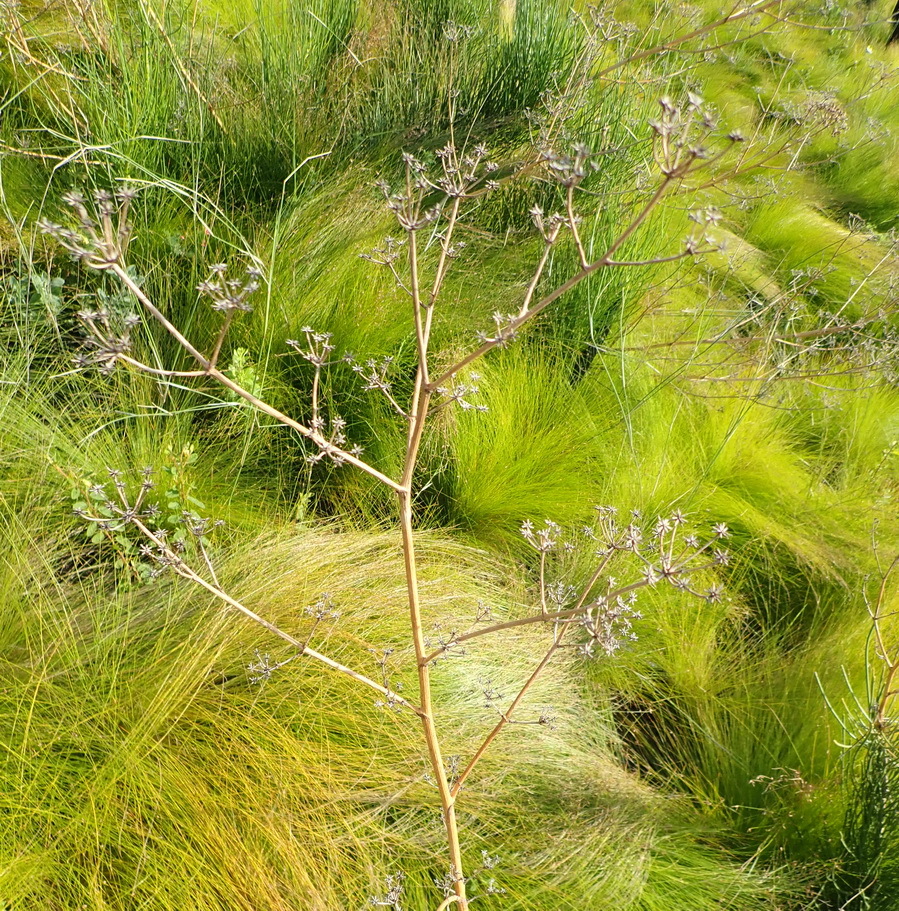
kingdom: Plantae
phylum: Tracheophyta
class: Magnoliopsida
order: Apiales
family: Apiaceae
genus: Anginon
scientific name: Anginon difforme
